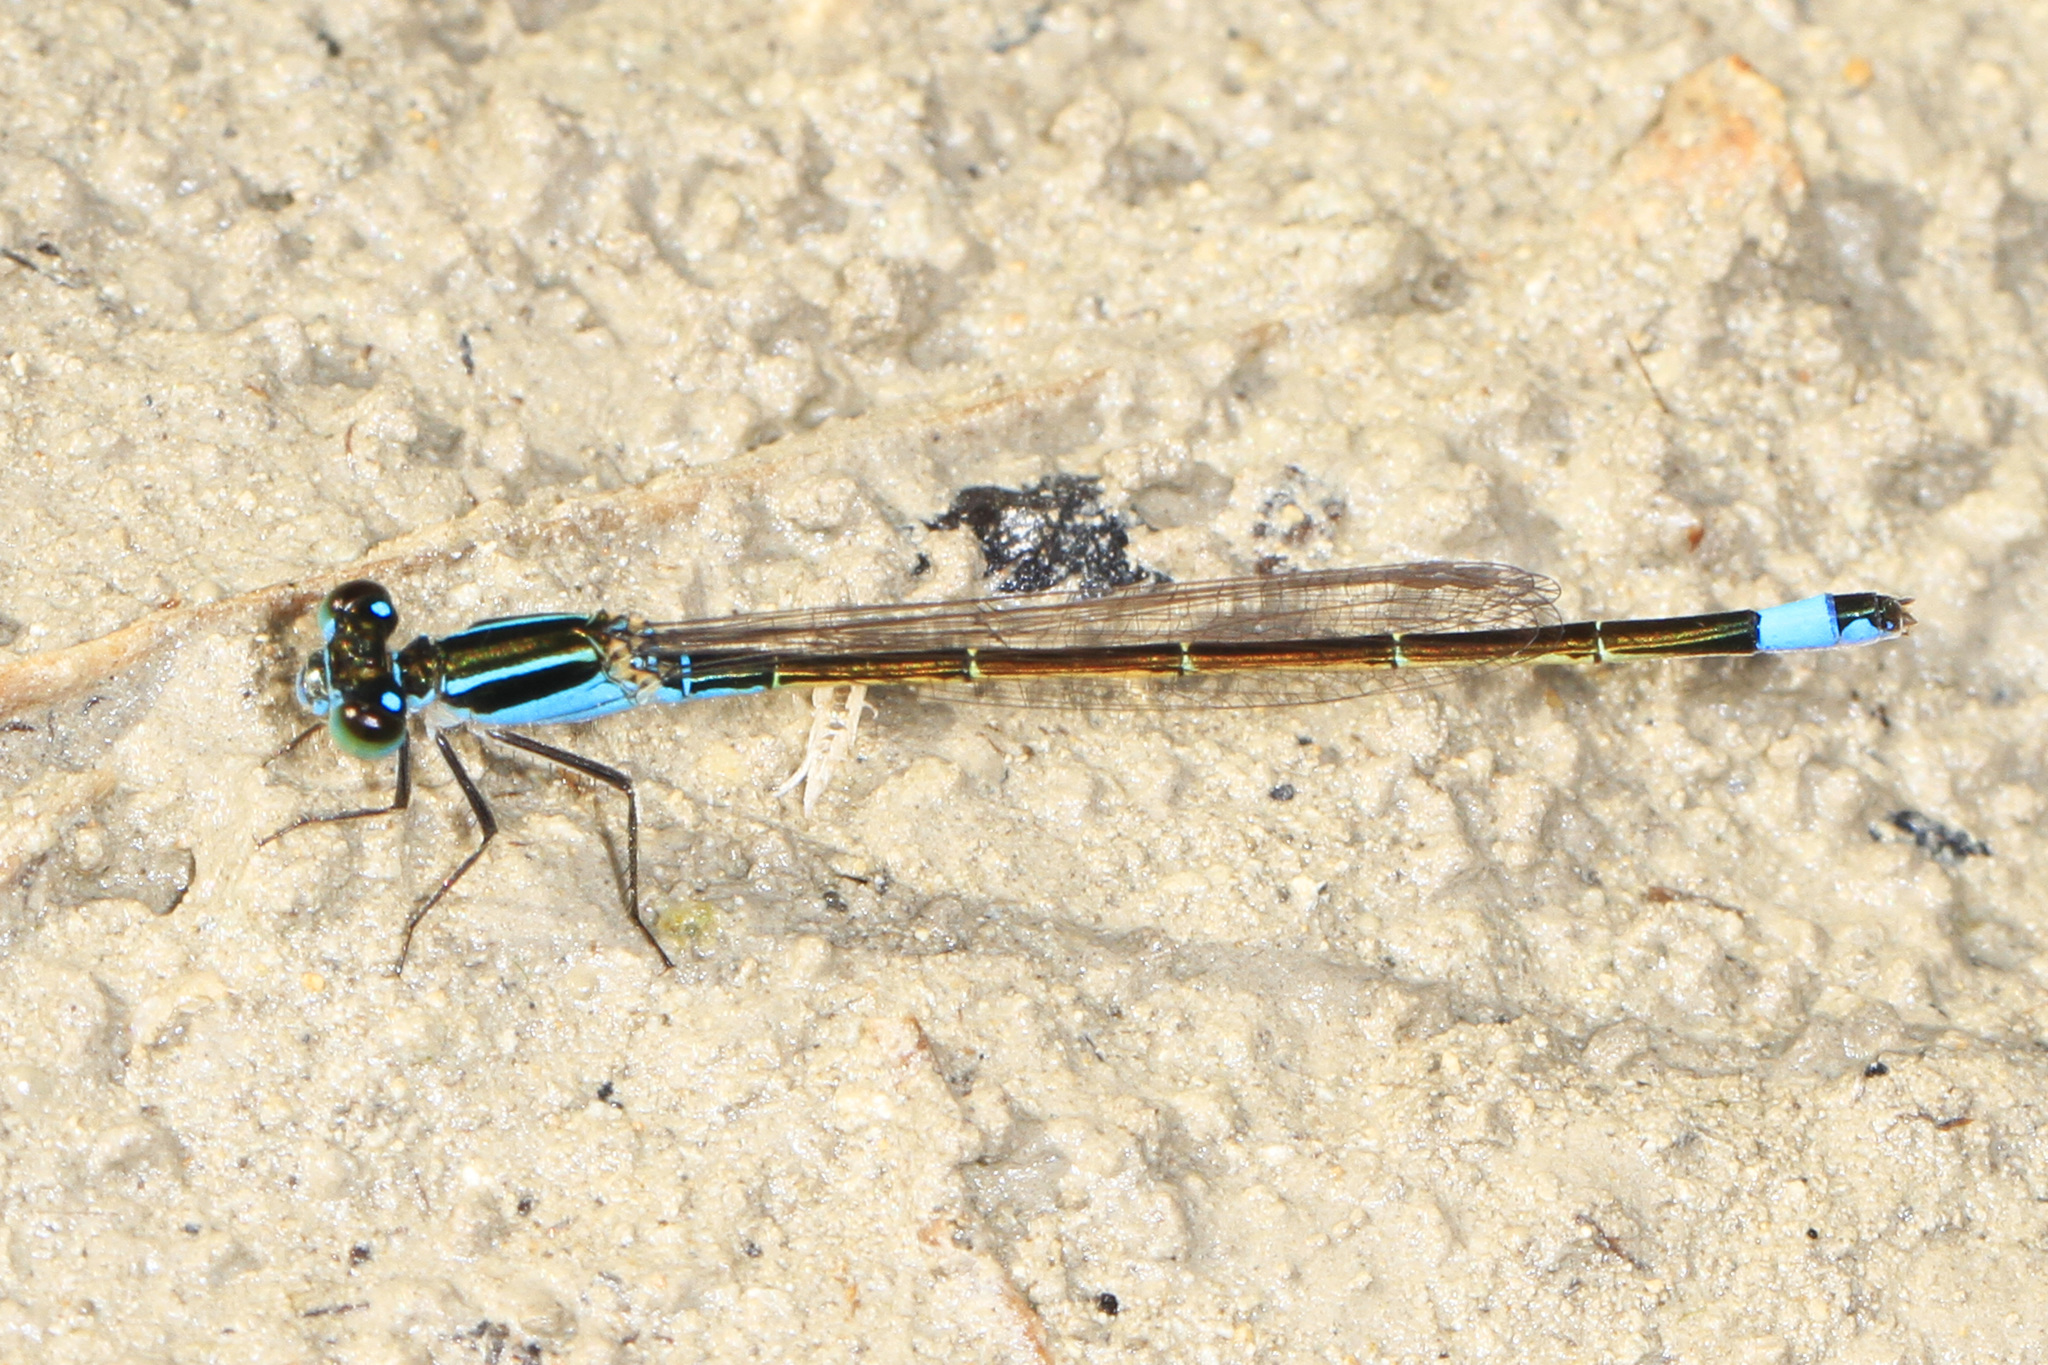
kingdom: Animalia
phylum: Arthropoda
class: Insecta
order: Odonata
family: Coenagrionidae
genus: Ischnura
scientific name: Ischnura ramburii
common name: Rambur's forktail
